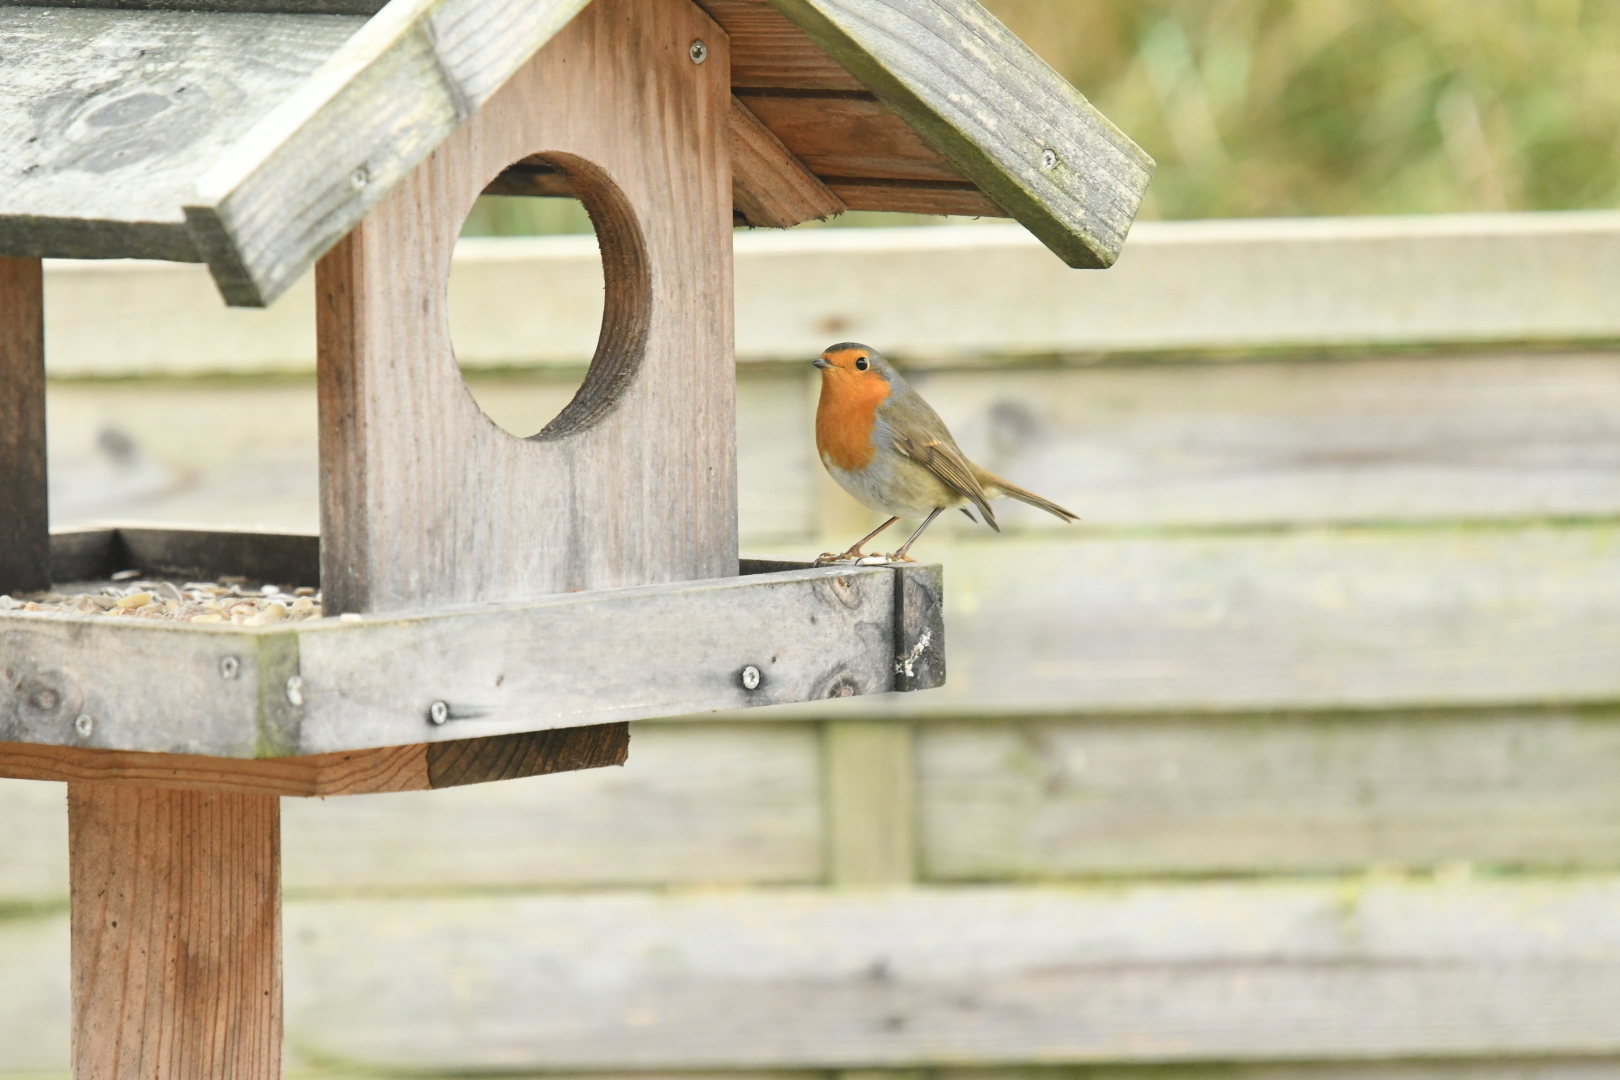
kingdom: Animalia
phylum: Chordata
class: Aves
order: Passeriformes
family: Muscicapidae
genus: Erithacus
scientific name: Erithacus rubecula
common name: European robin
